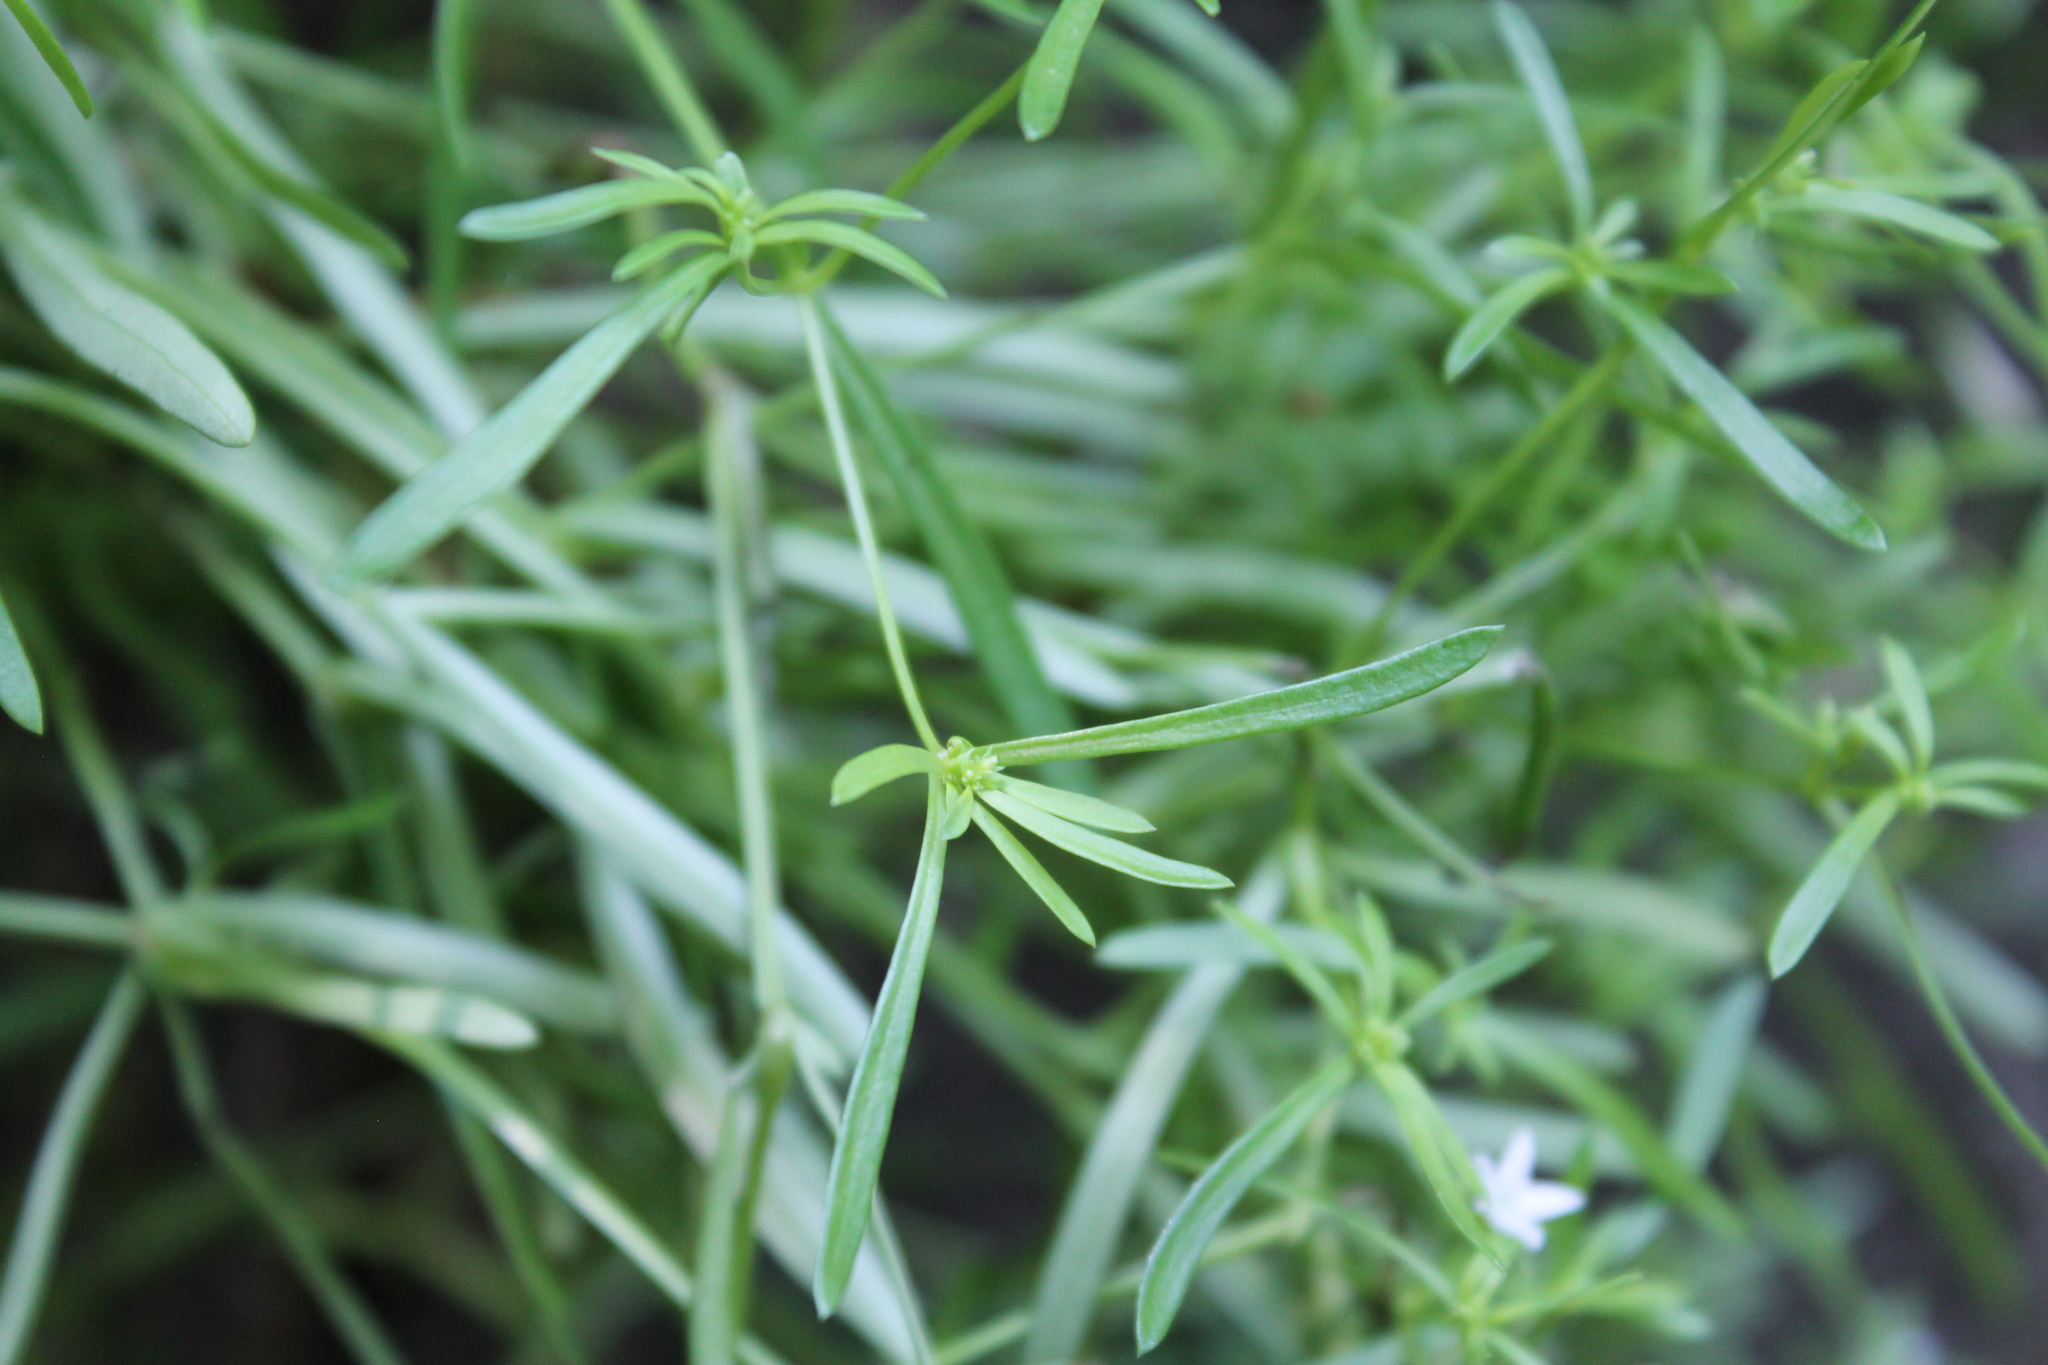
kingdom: Plantae
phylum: Tracheophyta
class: Magnoliopsida
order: Gentianales
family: Rubiaceae
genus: Houstonia
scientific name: Houstonia purpurea
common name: Summer bluet
